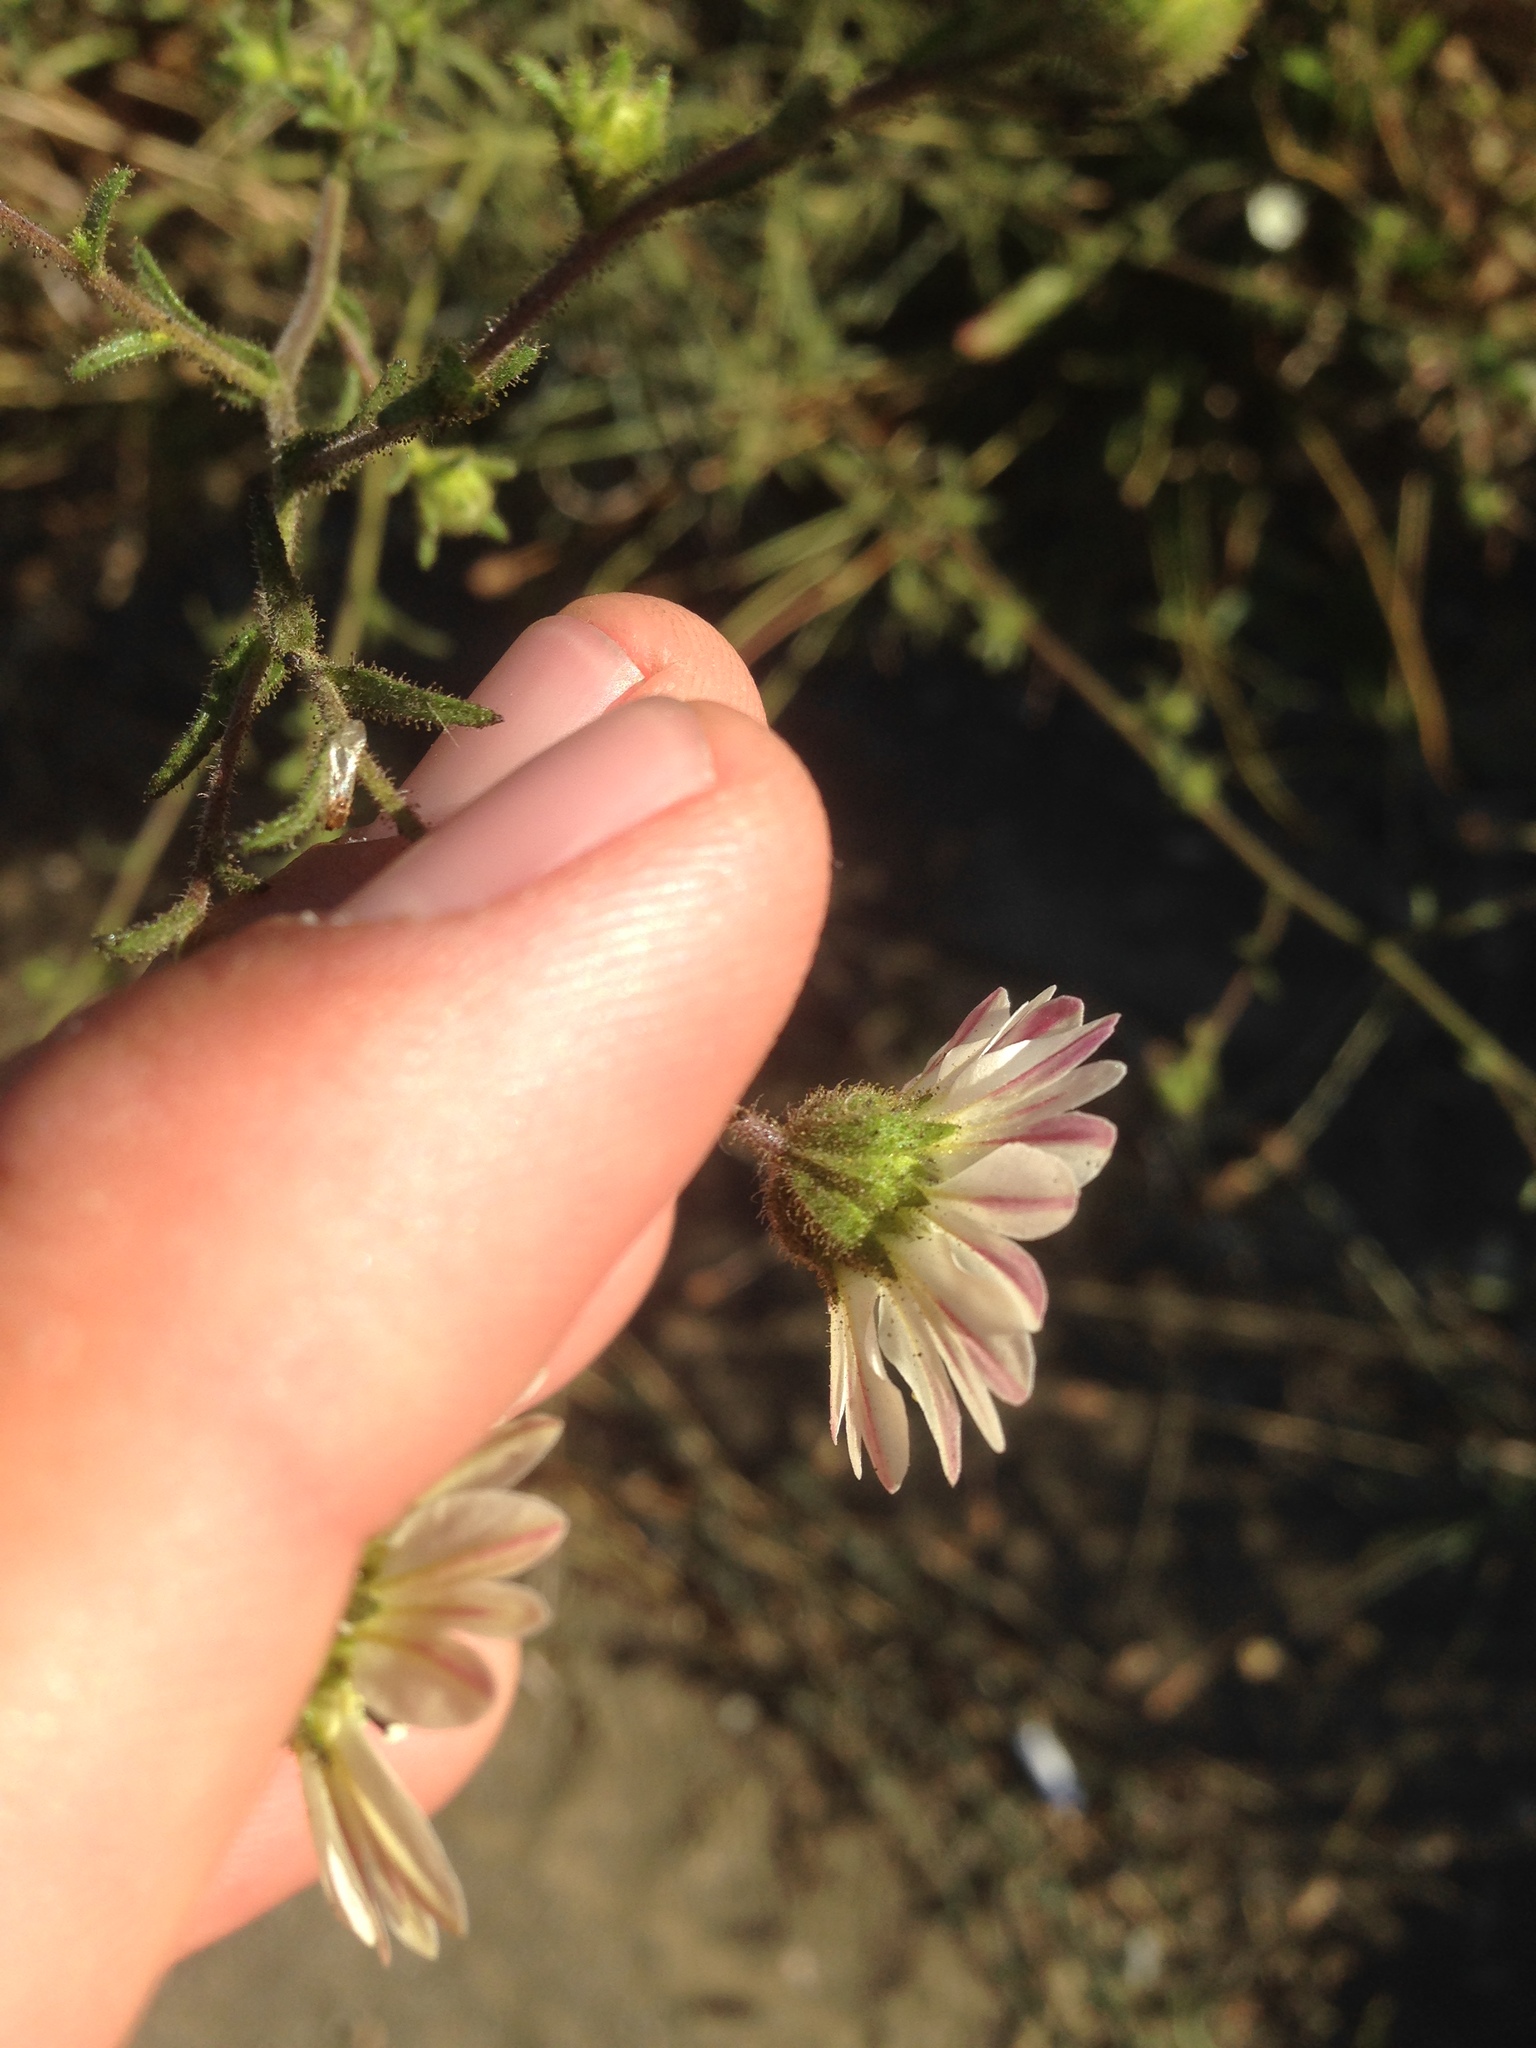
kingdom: Plantae
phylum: Tracheophyta
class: Magnoliopsida
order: Asterales
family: Asteraceae
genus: Hemizonia
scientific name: Hemizonia congesta
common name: Hayfield tarweed
